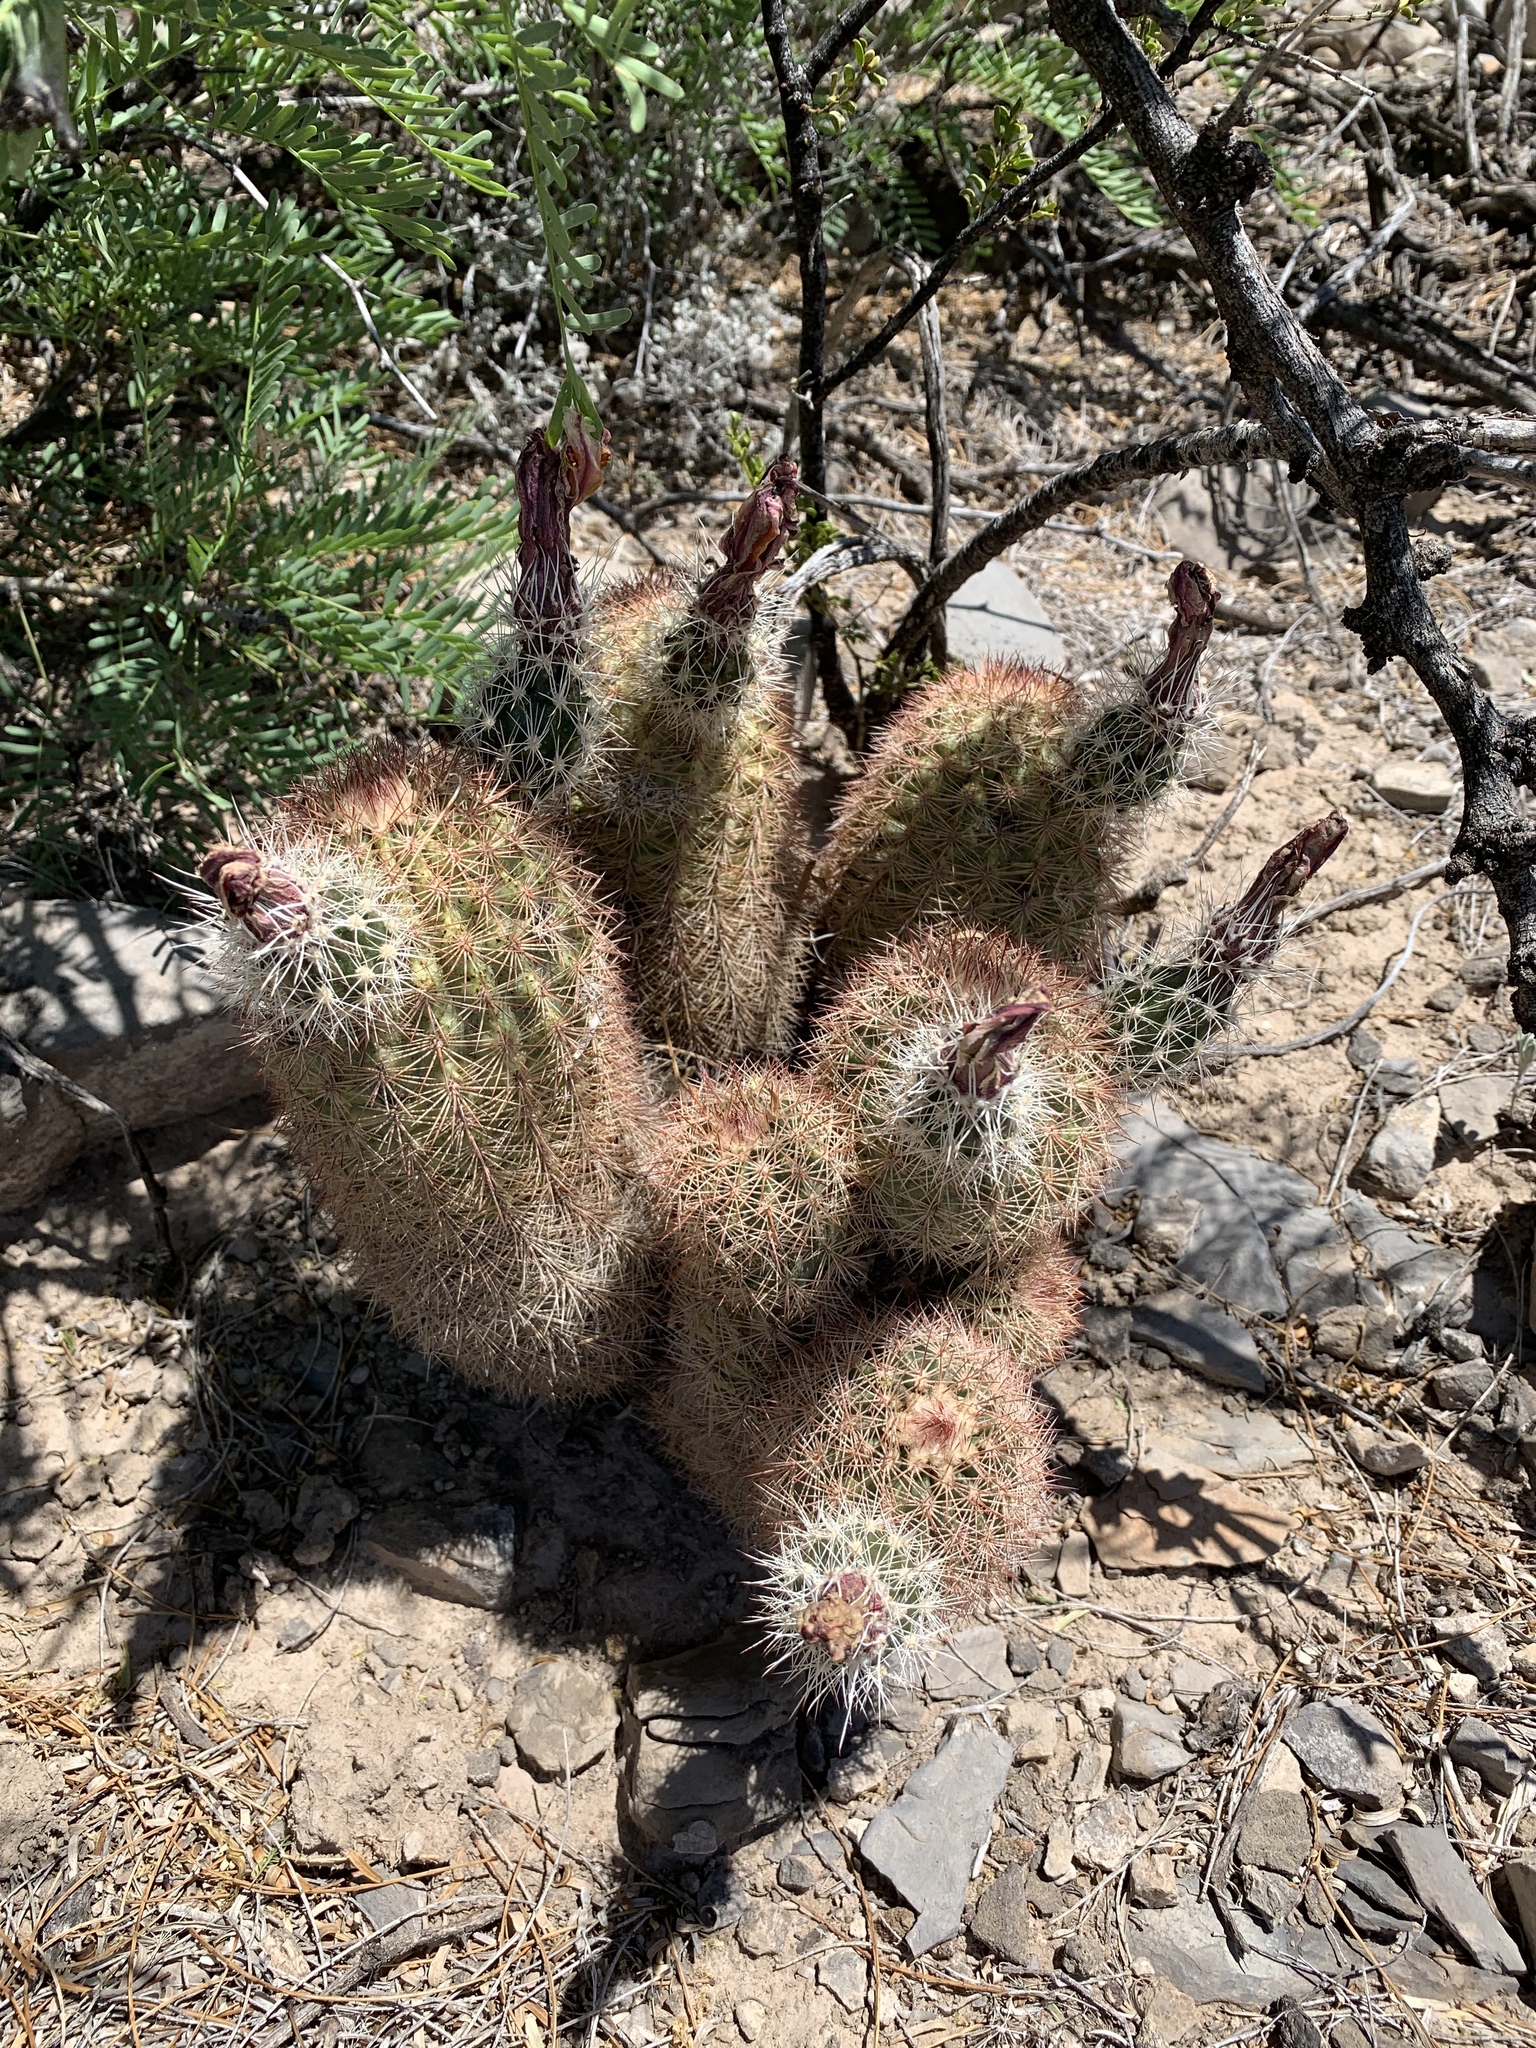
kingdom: Plantae
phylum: Tracheophyta
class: Magnoliopsida
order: Caryophyllales
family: Cactaceae
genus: Echinocereus
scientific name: Echinocereus dasyacanthus
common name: Spiny hedgehog cactus
